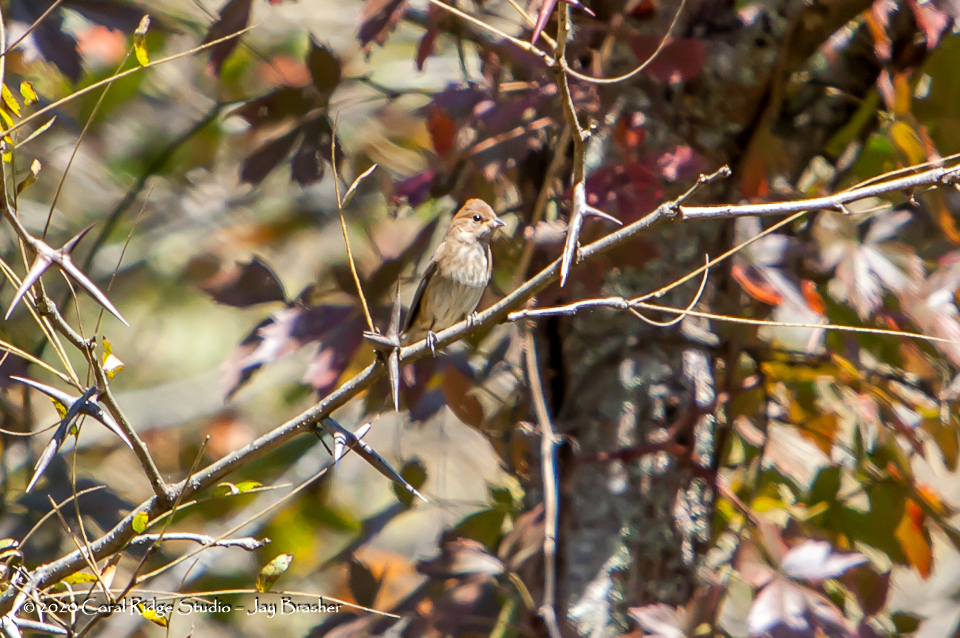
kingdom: Animalia
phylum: Chordata
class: Aves
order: Passeriformes
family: Cardinalidae
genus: Passerina
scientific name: Passerina cyanea
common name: Indigo bunting
